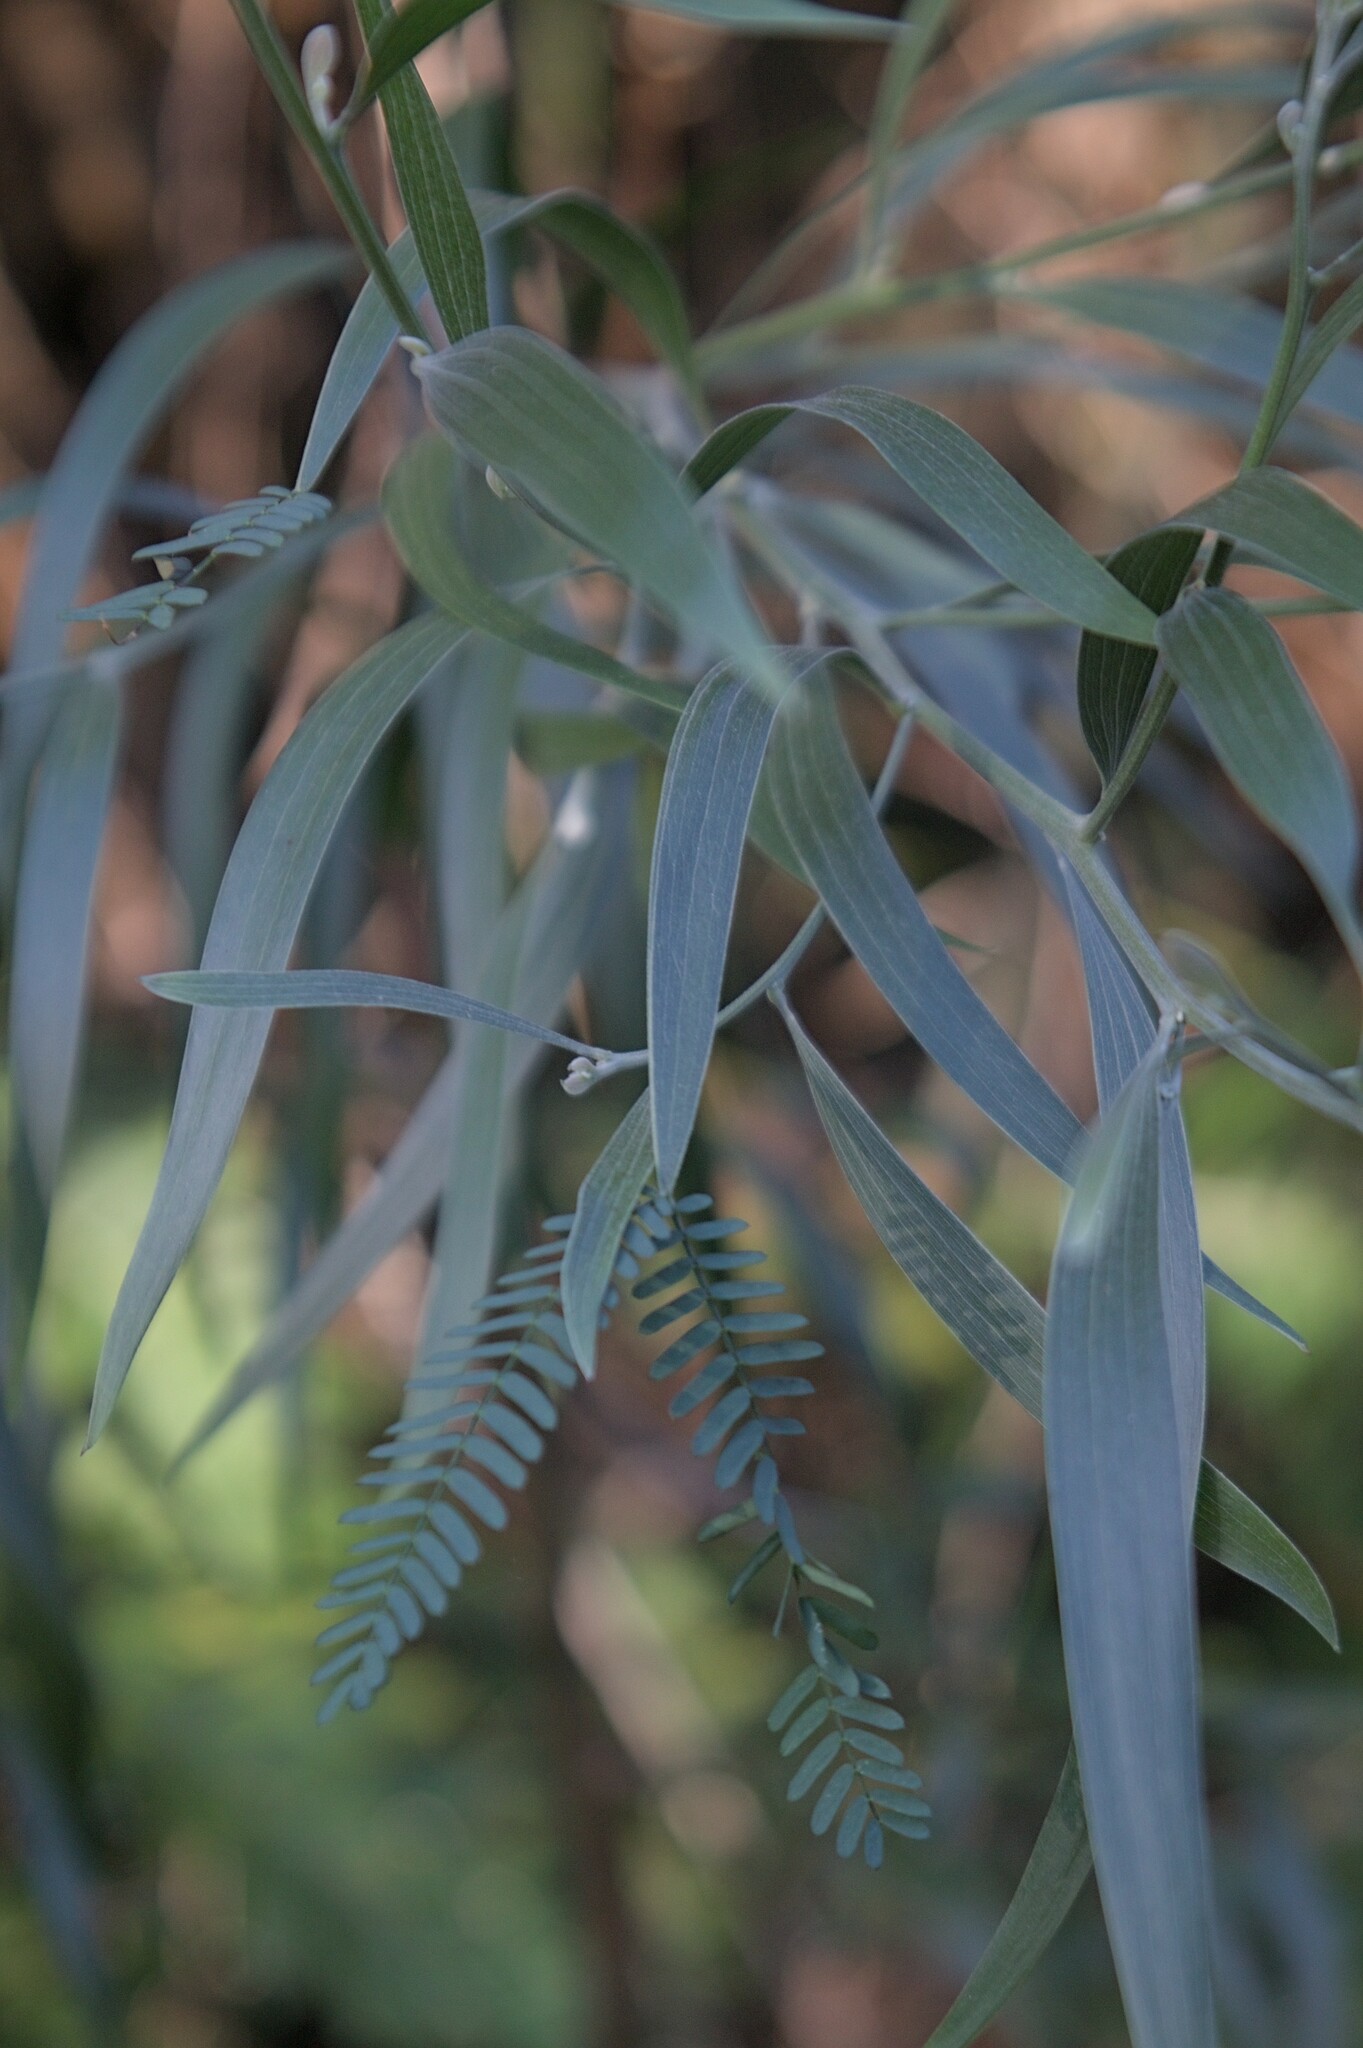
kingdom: Plantae
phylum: Tracheophyta
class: Magnoliopsida
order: Fabales
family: Fabaceae
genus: Acacia
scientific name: Acacia melanoxylon
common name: Blackwood
